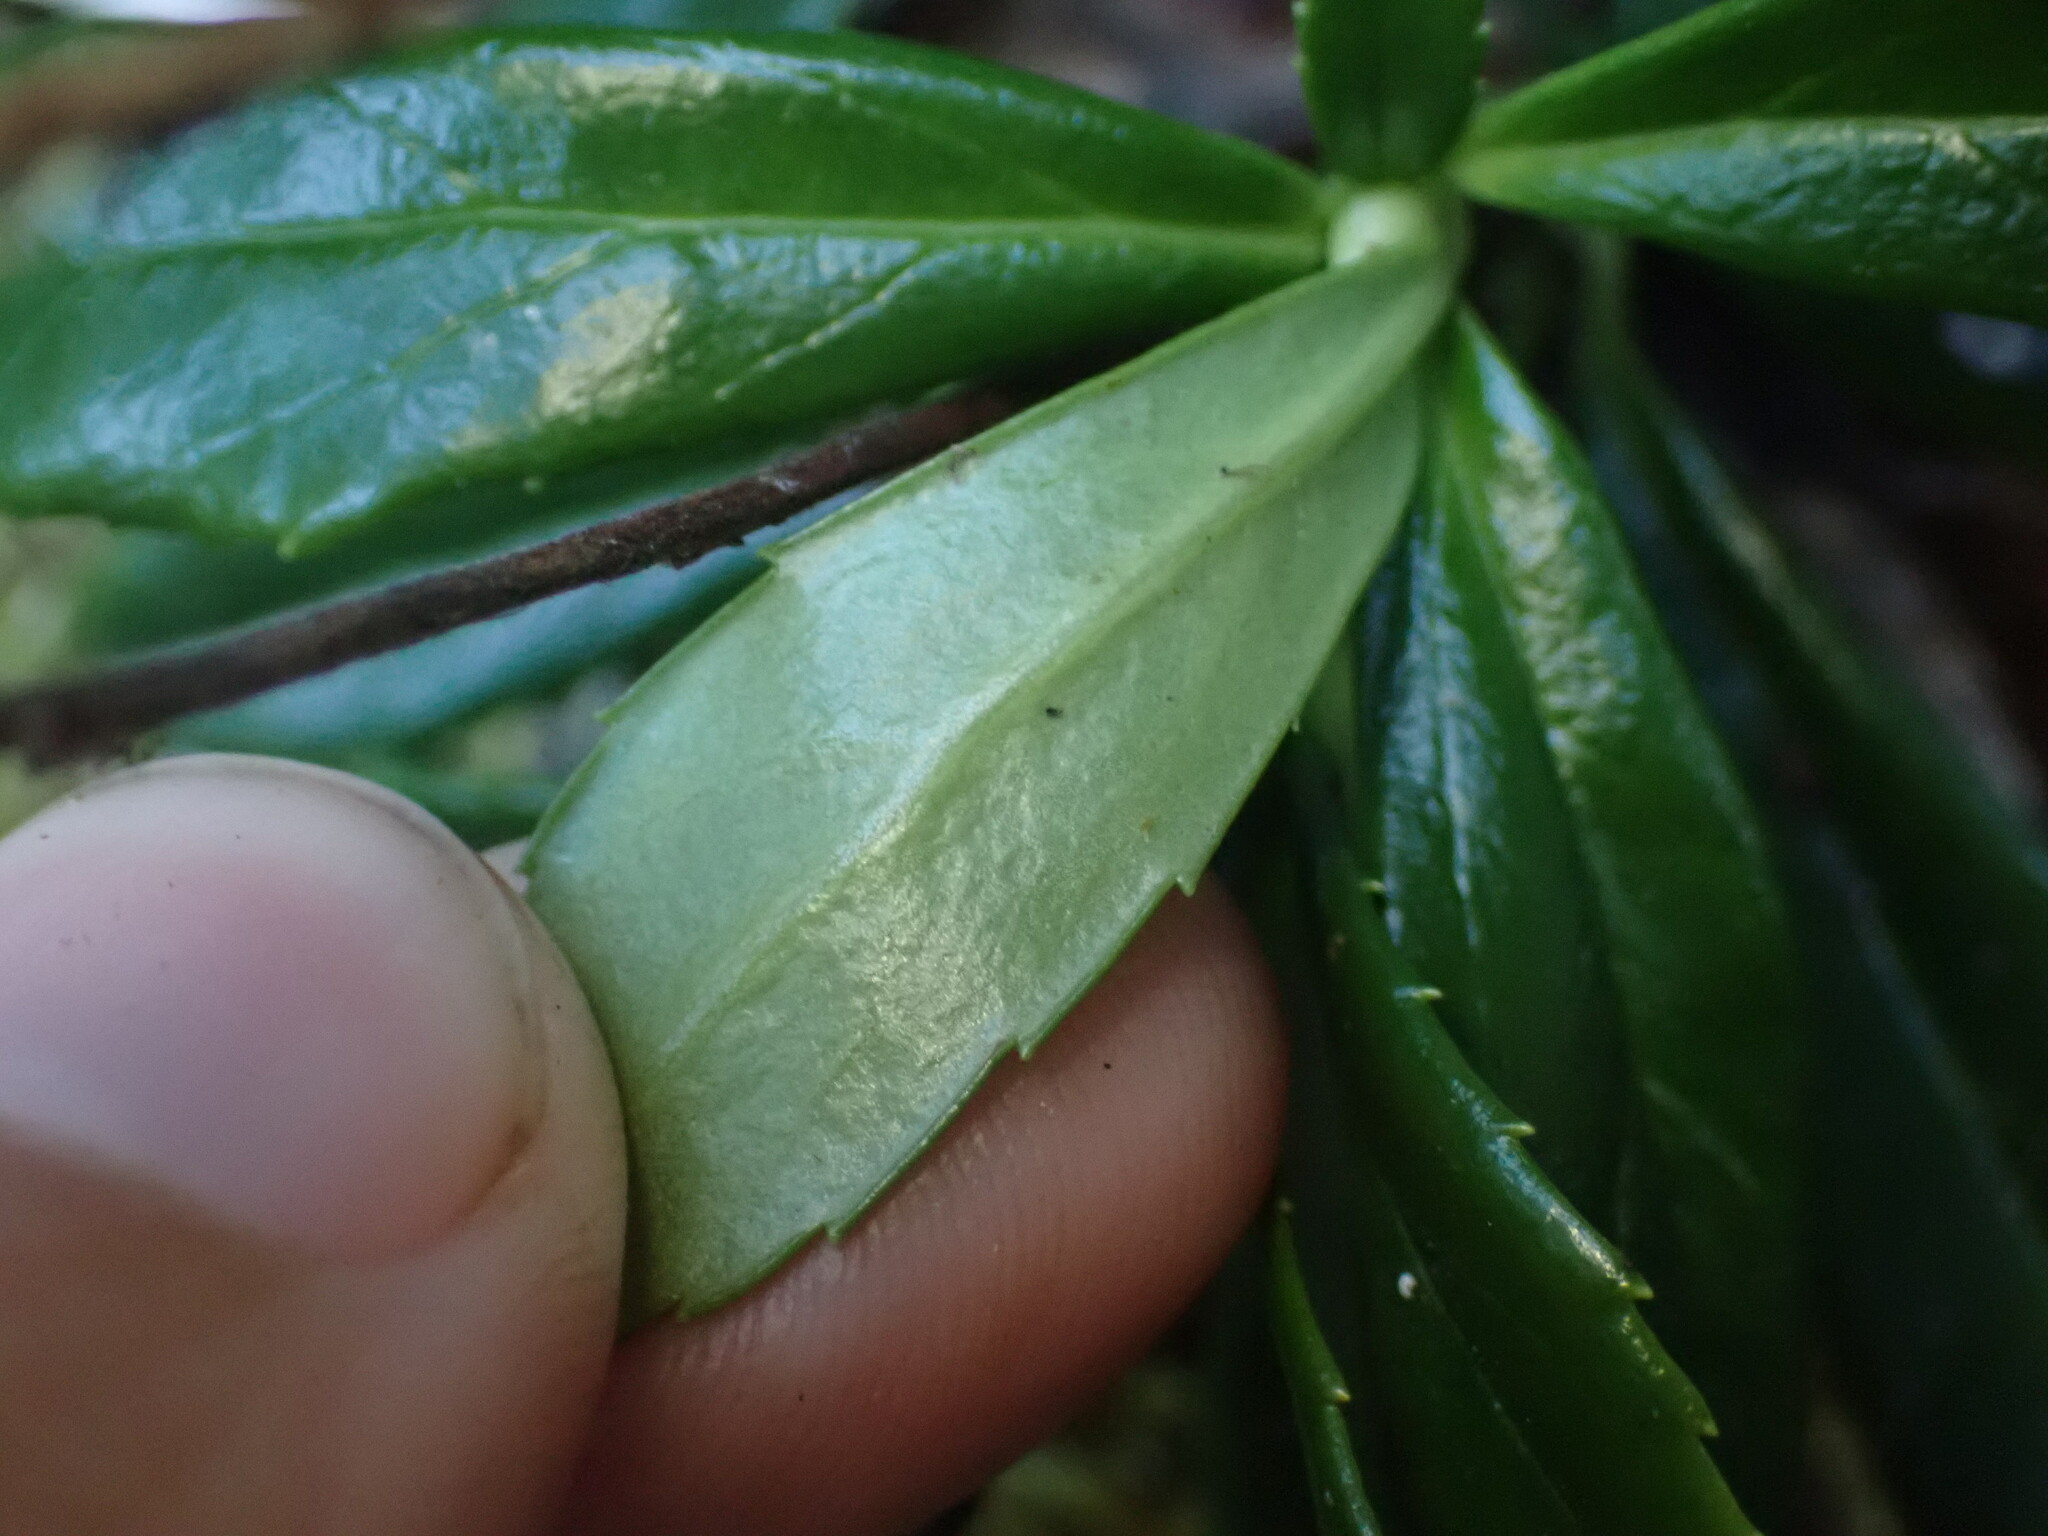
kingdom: Plantae
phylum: Tracheophyta
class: Magnoliopsida
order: Ericales
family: Ericaceae
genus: Chimaphila
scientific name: Chimaphila umbellata
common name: Pipsissewa
